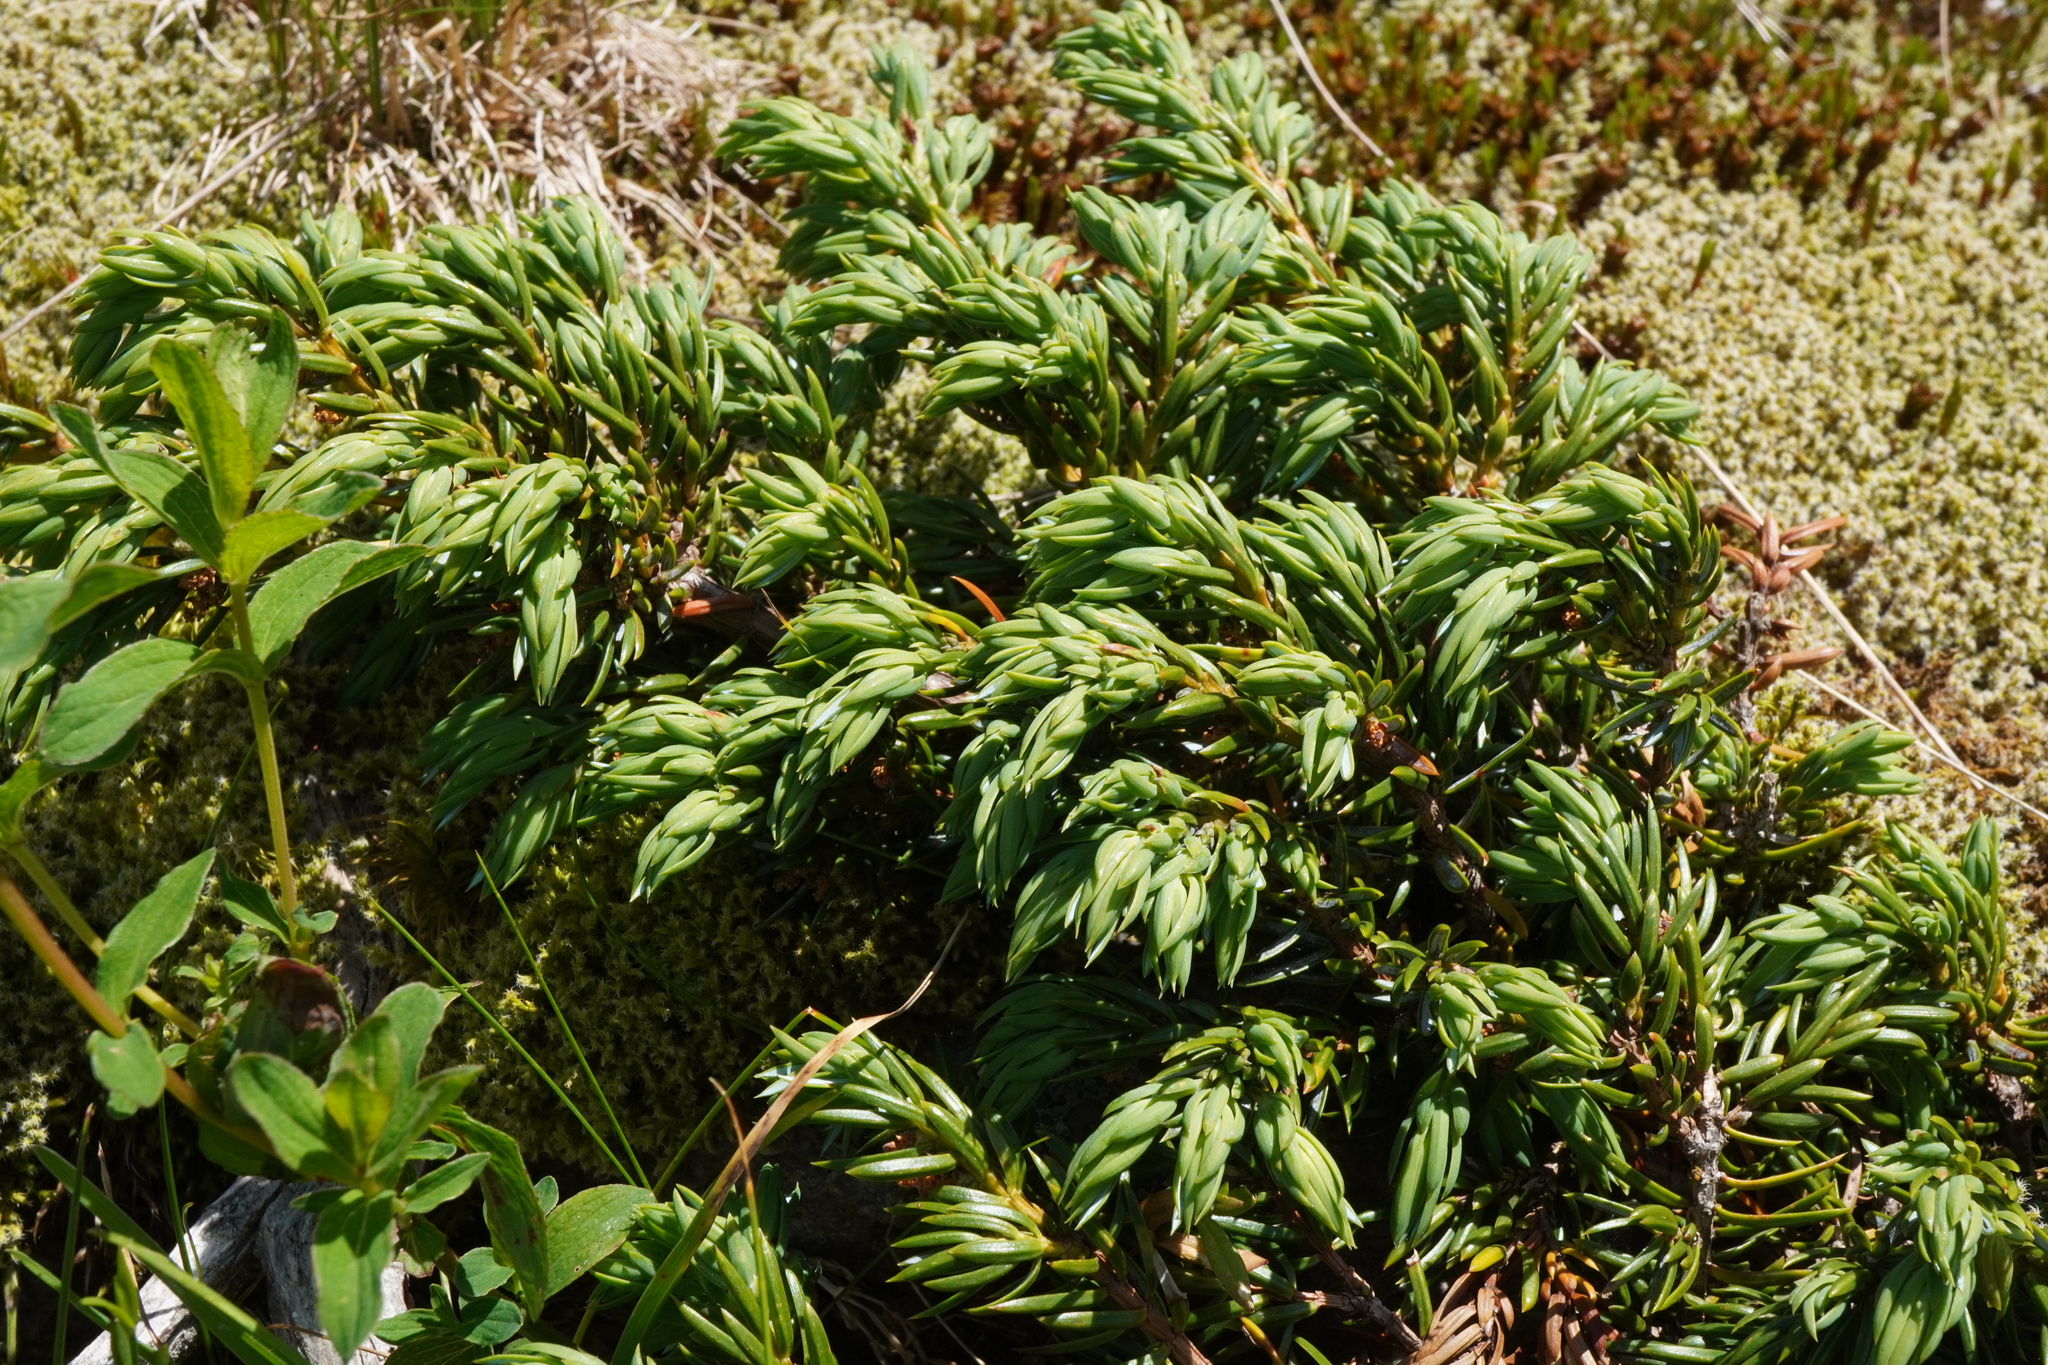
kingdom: Plantae
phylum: Tracheophyta
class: Pinopsida
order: Pinales
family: Cupressaceae
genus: Juniperus
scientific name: Juniperus communis
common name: Common juniper
